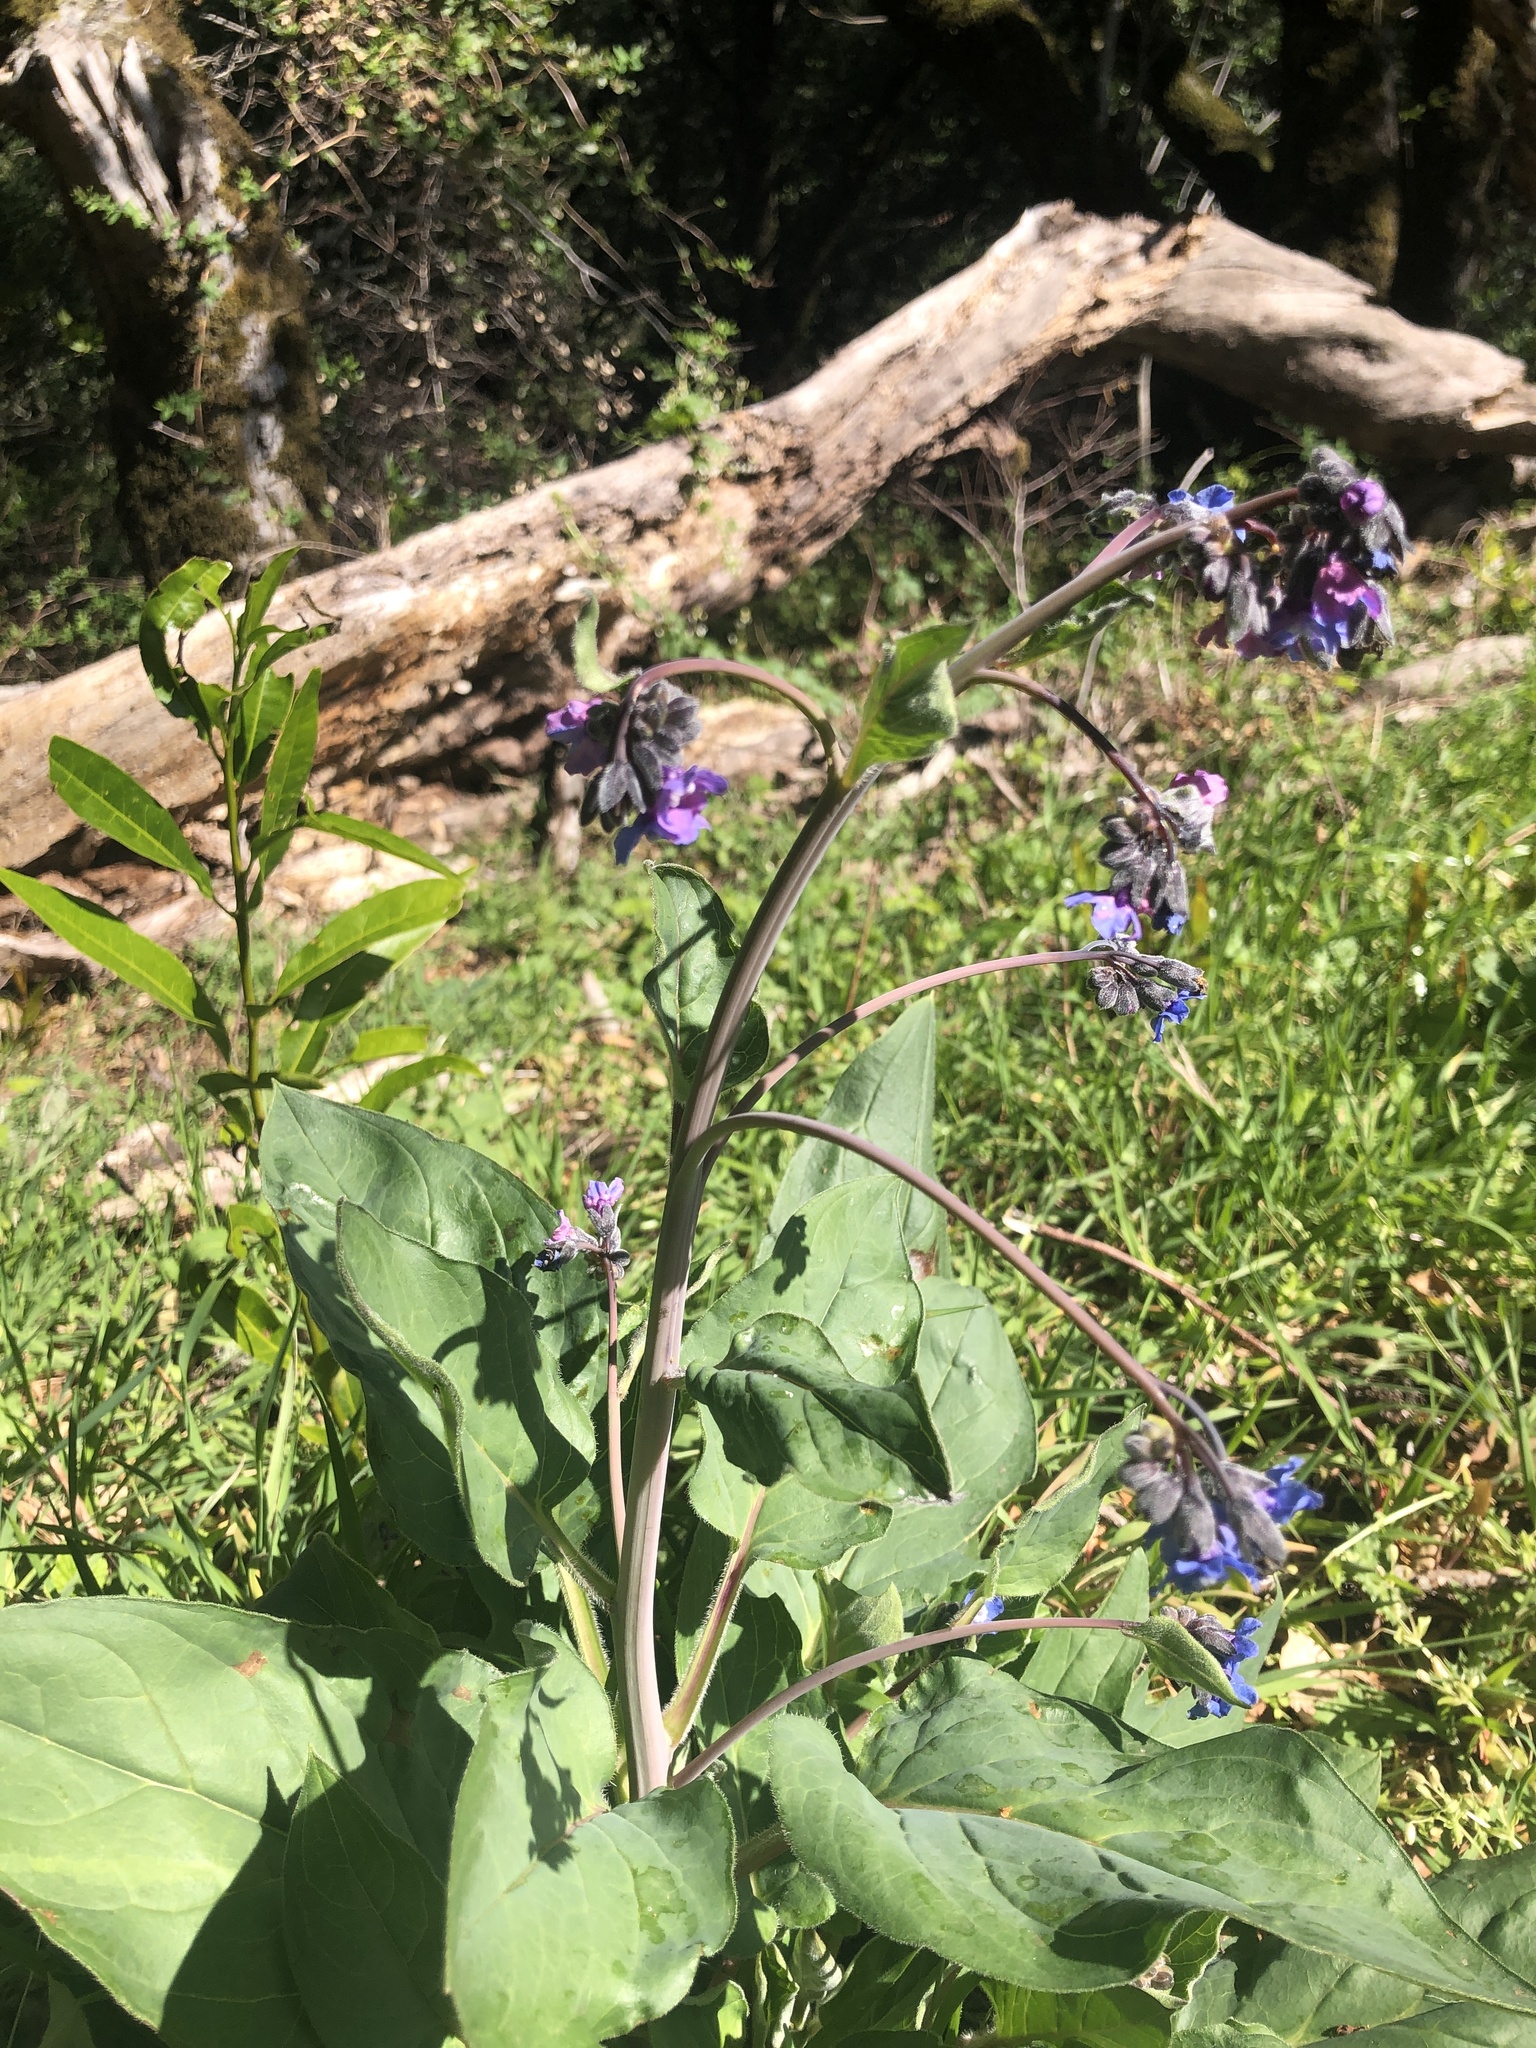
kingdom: Plantae
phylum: Tracheophyta
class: Magnoliopsida
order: Boraginales
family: Boraginaceae
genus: Adelinia
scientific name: Adelinia grande
